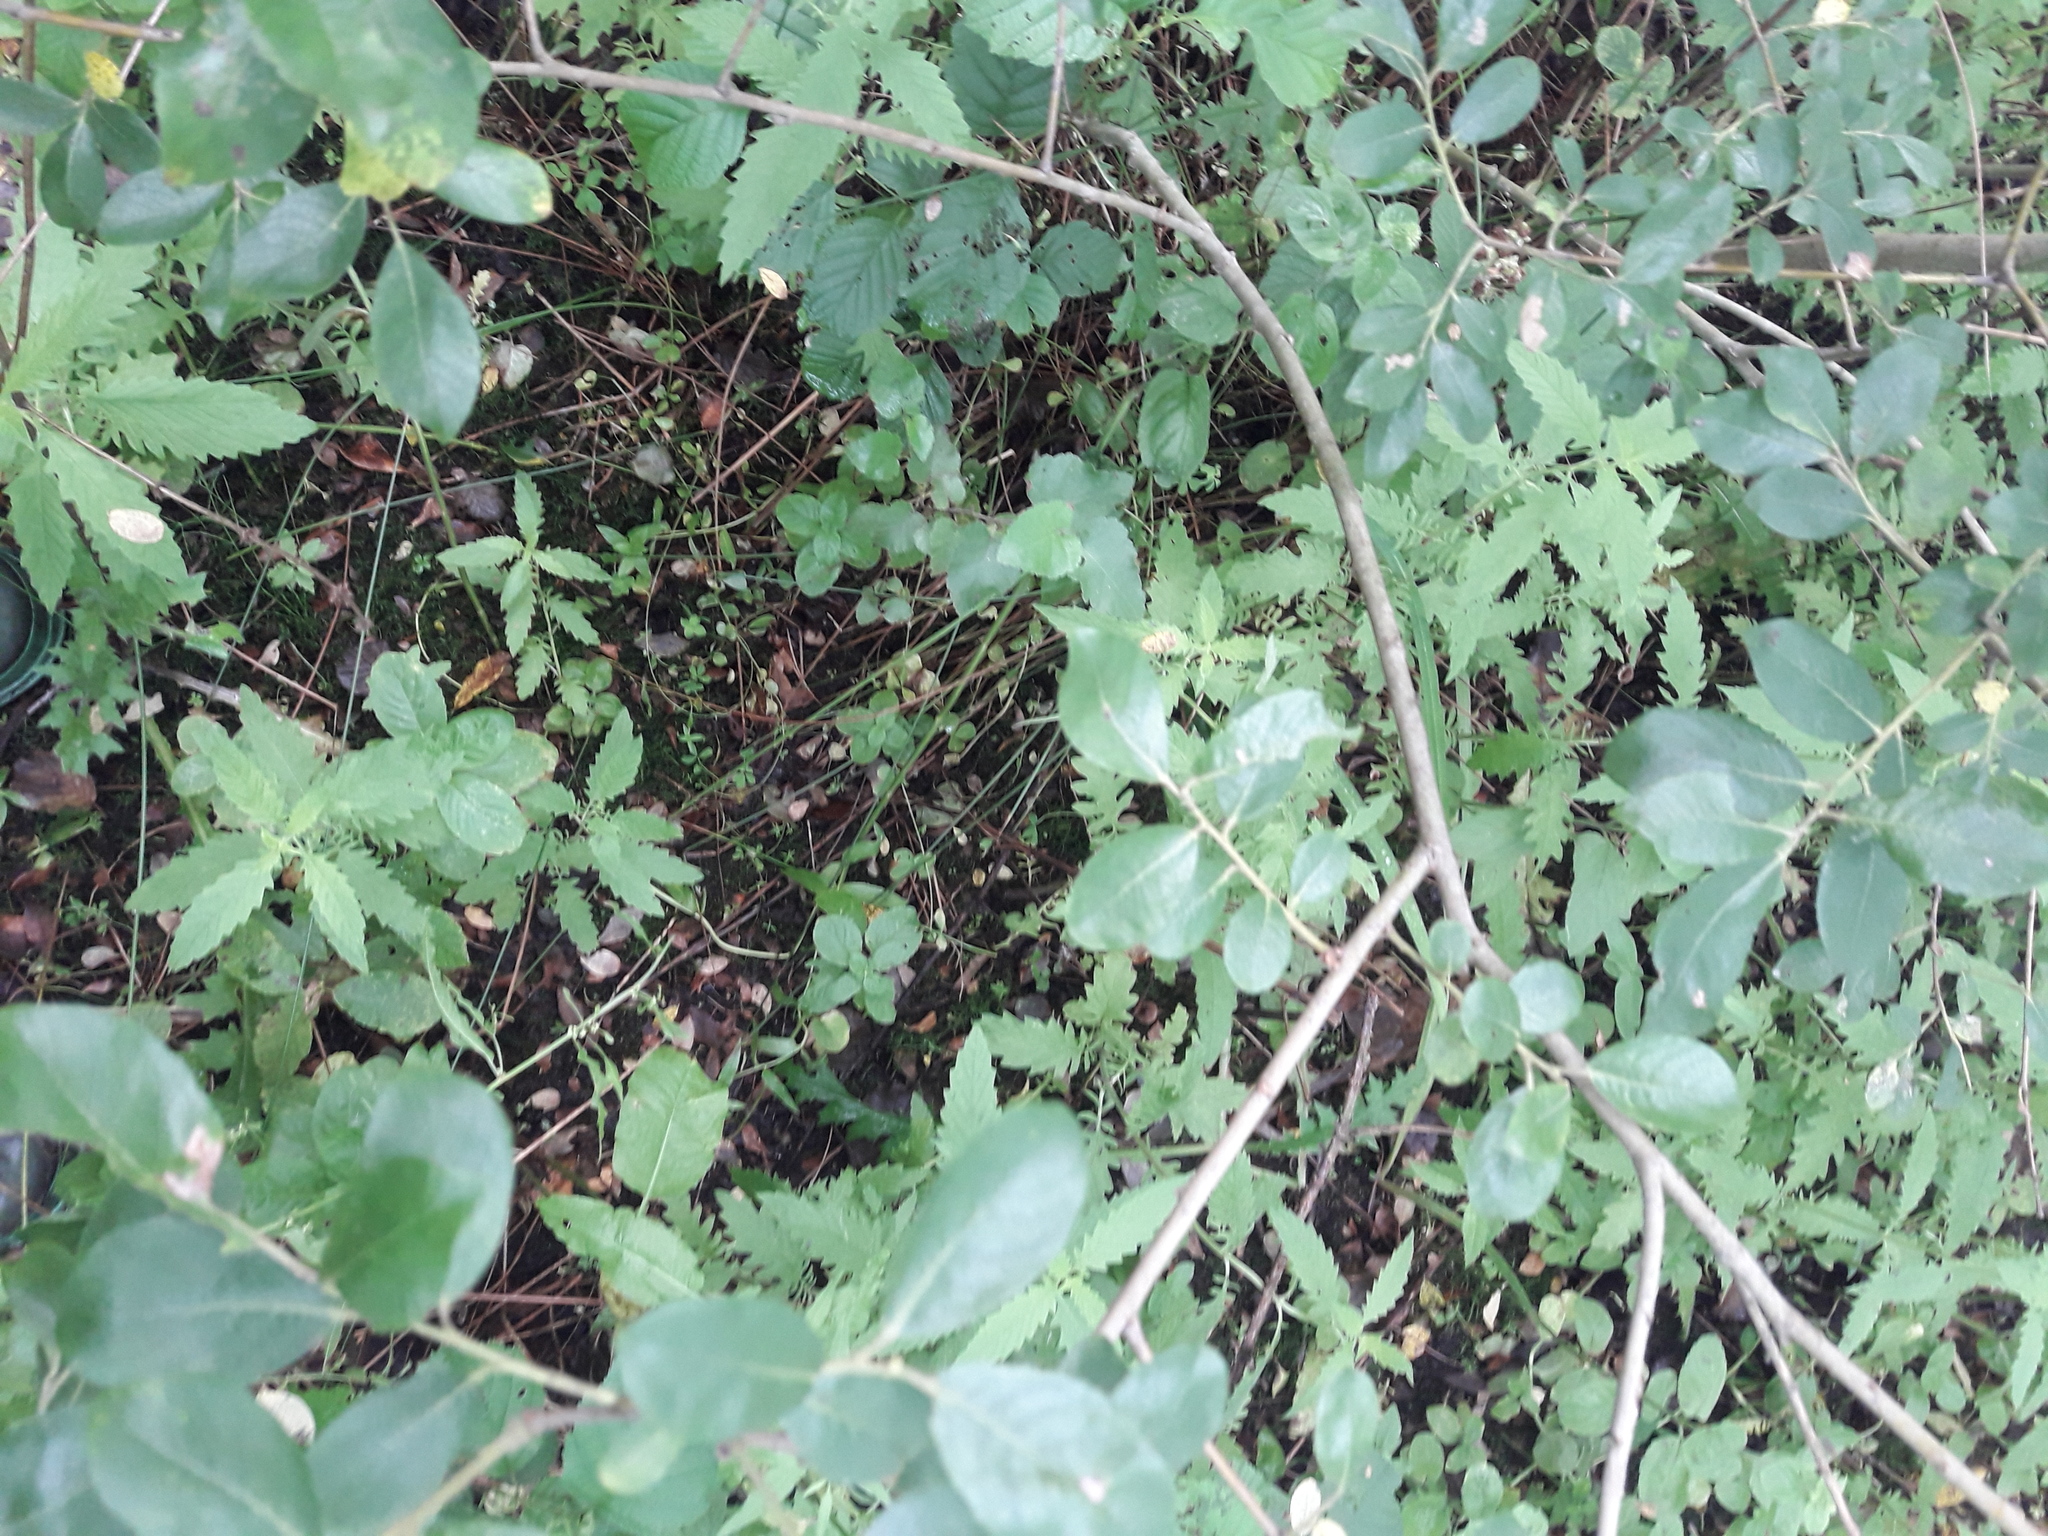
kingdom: Plantae
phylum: Tracheophyta
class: Liliopsida
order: Poales
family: Juncaceae
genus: Juncus
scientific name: Juncus effusus
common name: Soft rush
